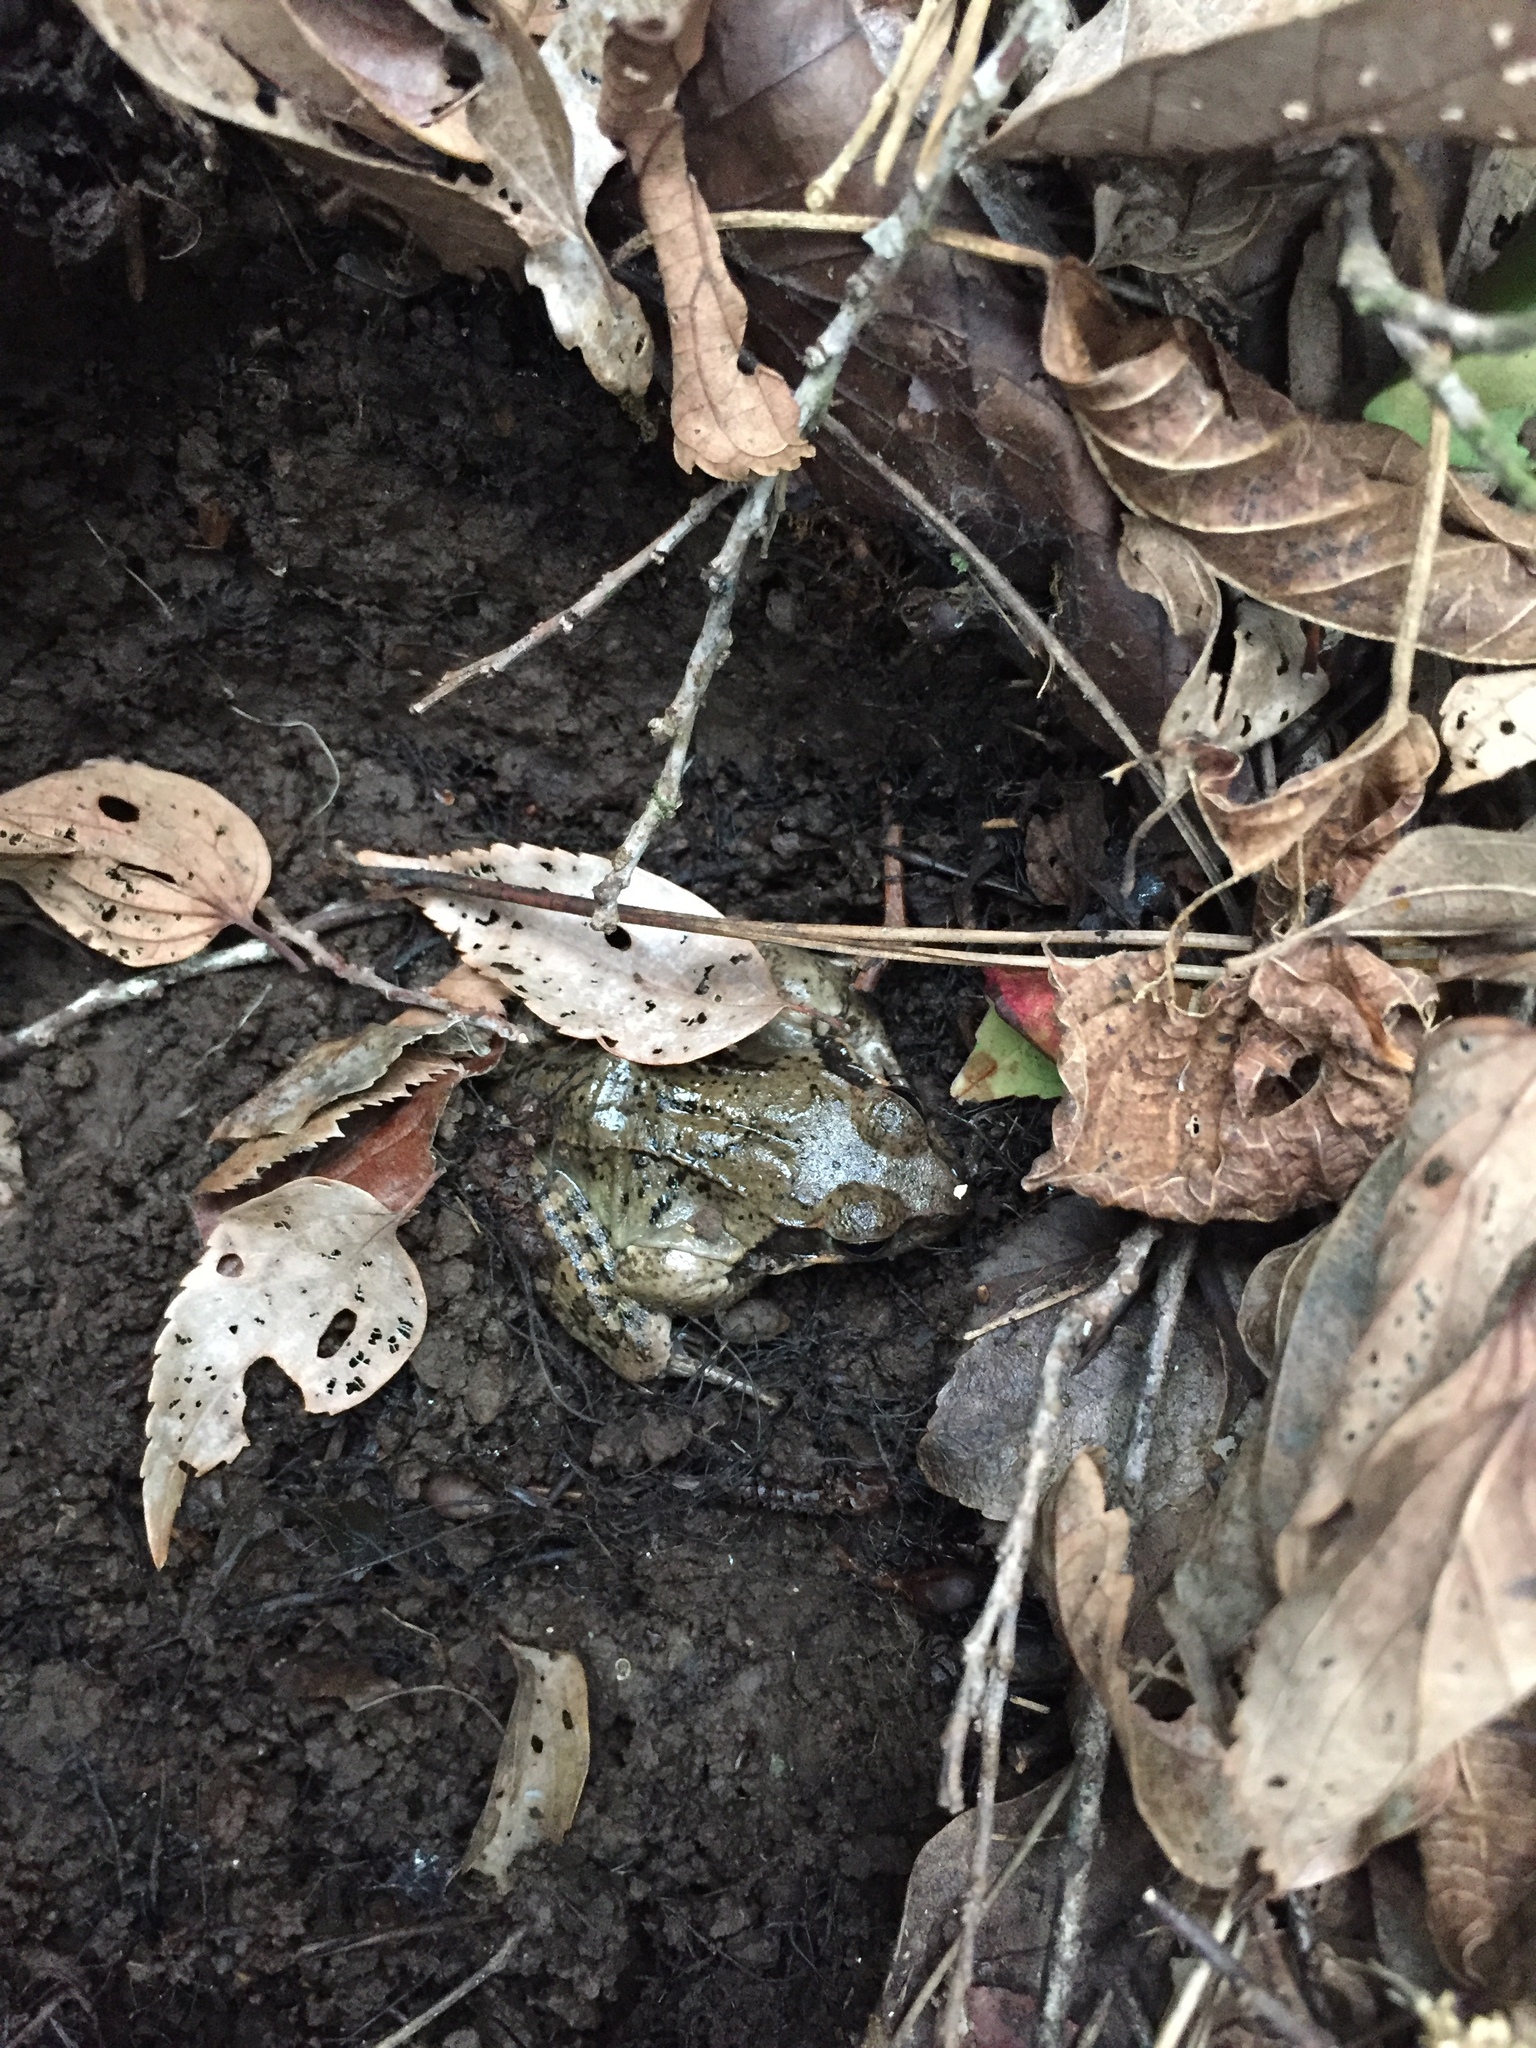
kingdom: Animalia
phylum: Chordata
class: Amphibia
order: Anura
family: Ranidae
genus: Rana
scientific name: Rana uenoi
